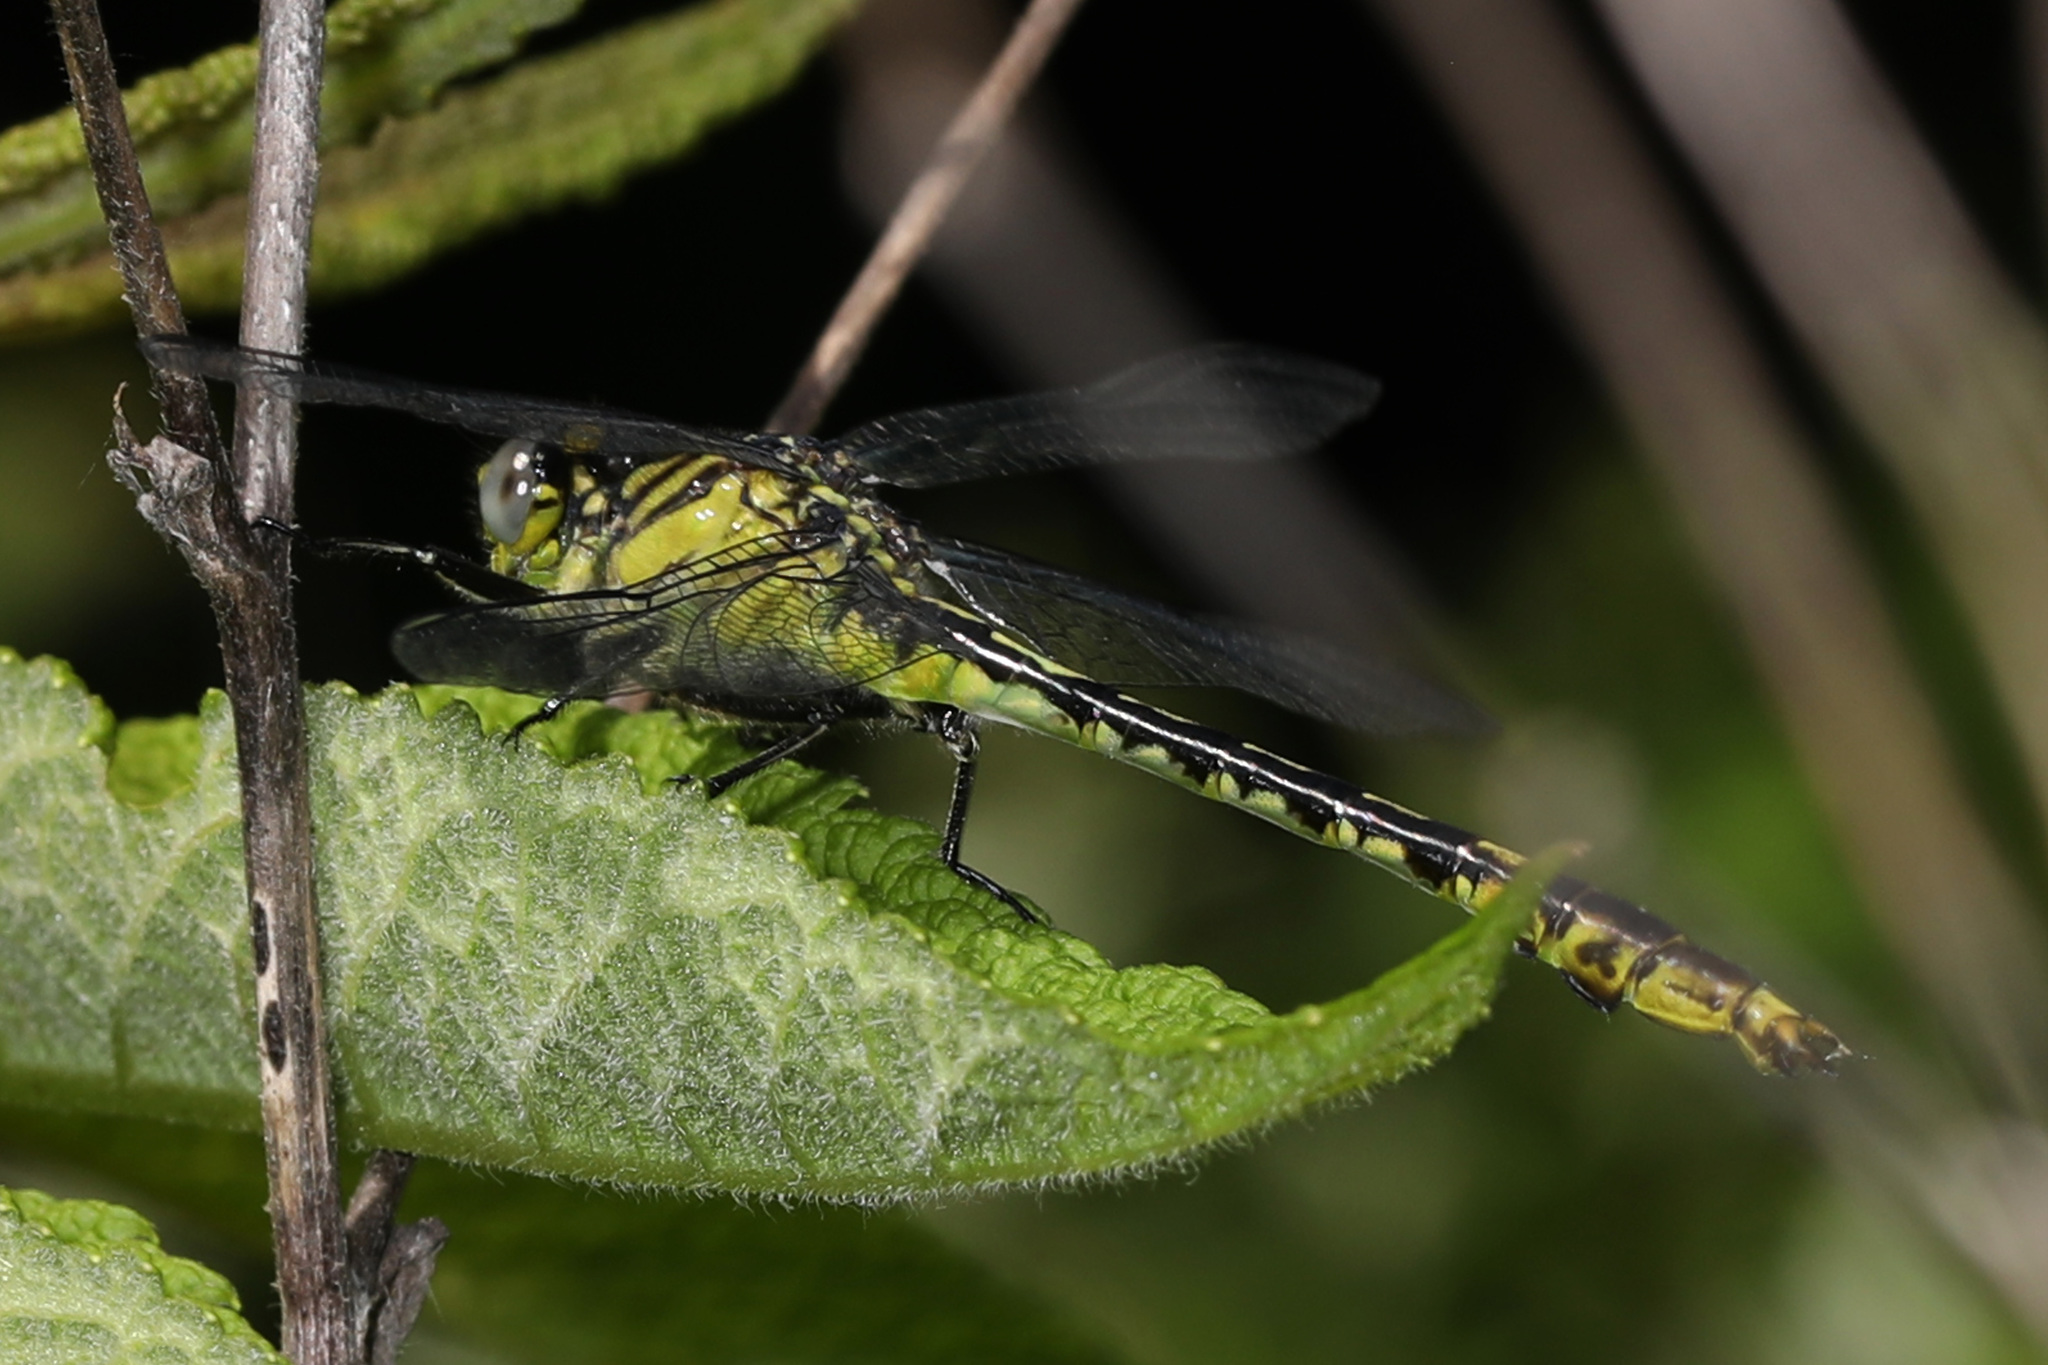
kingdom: Animalia
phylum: Arthropoda
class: Insecta
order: Odonata
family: Gomphidae
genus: Arigomphus
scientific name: Arigomphus villosipes
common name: Unicorn clubtail
